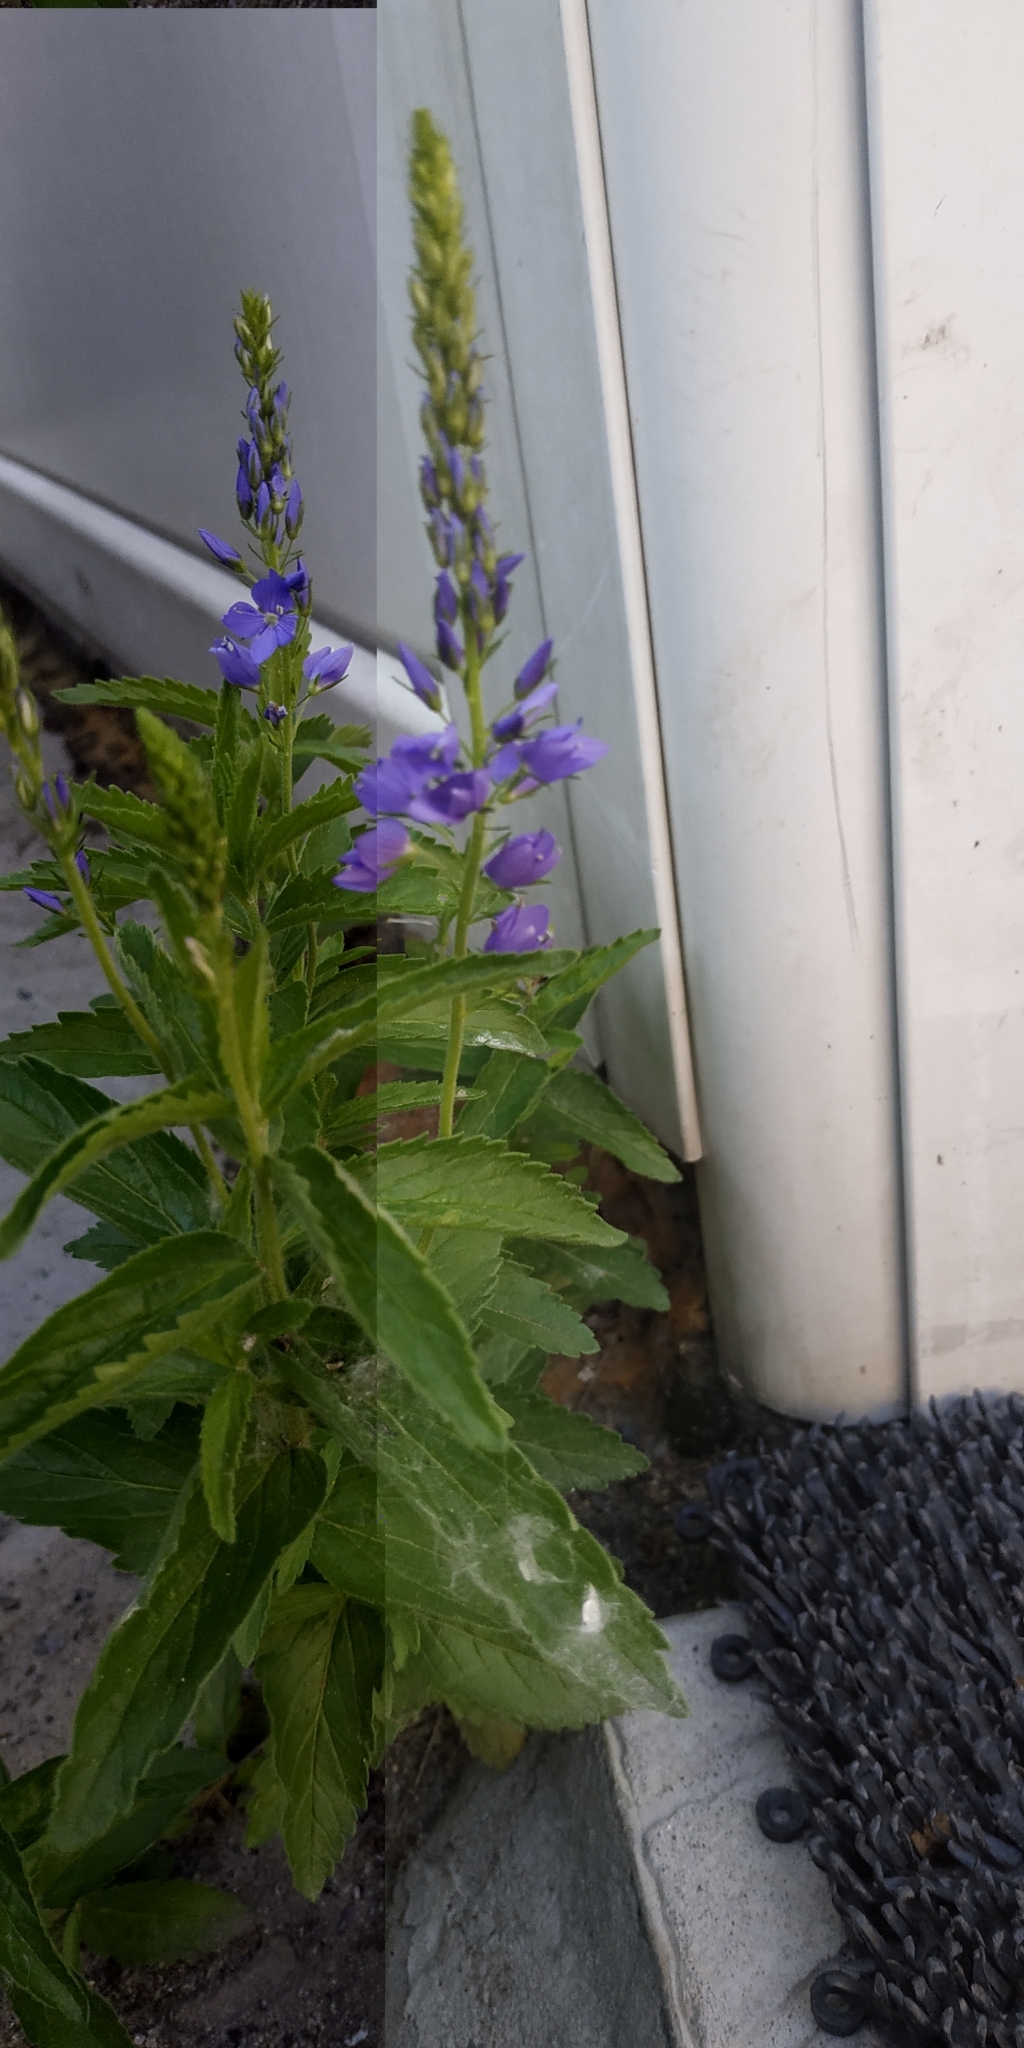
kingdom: Plantae
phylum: Tracheophyta
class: Magnoliopsida
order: Lamiales
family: Plantaginaceae
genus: Veronica
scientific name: Veronica teucrium
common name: Large speedwell
